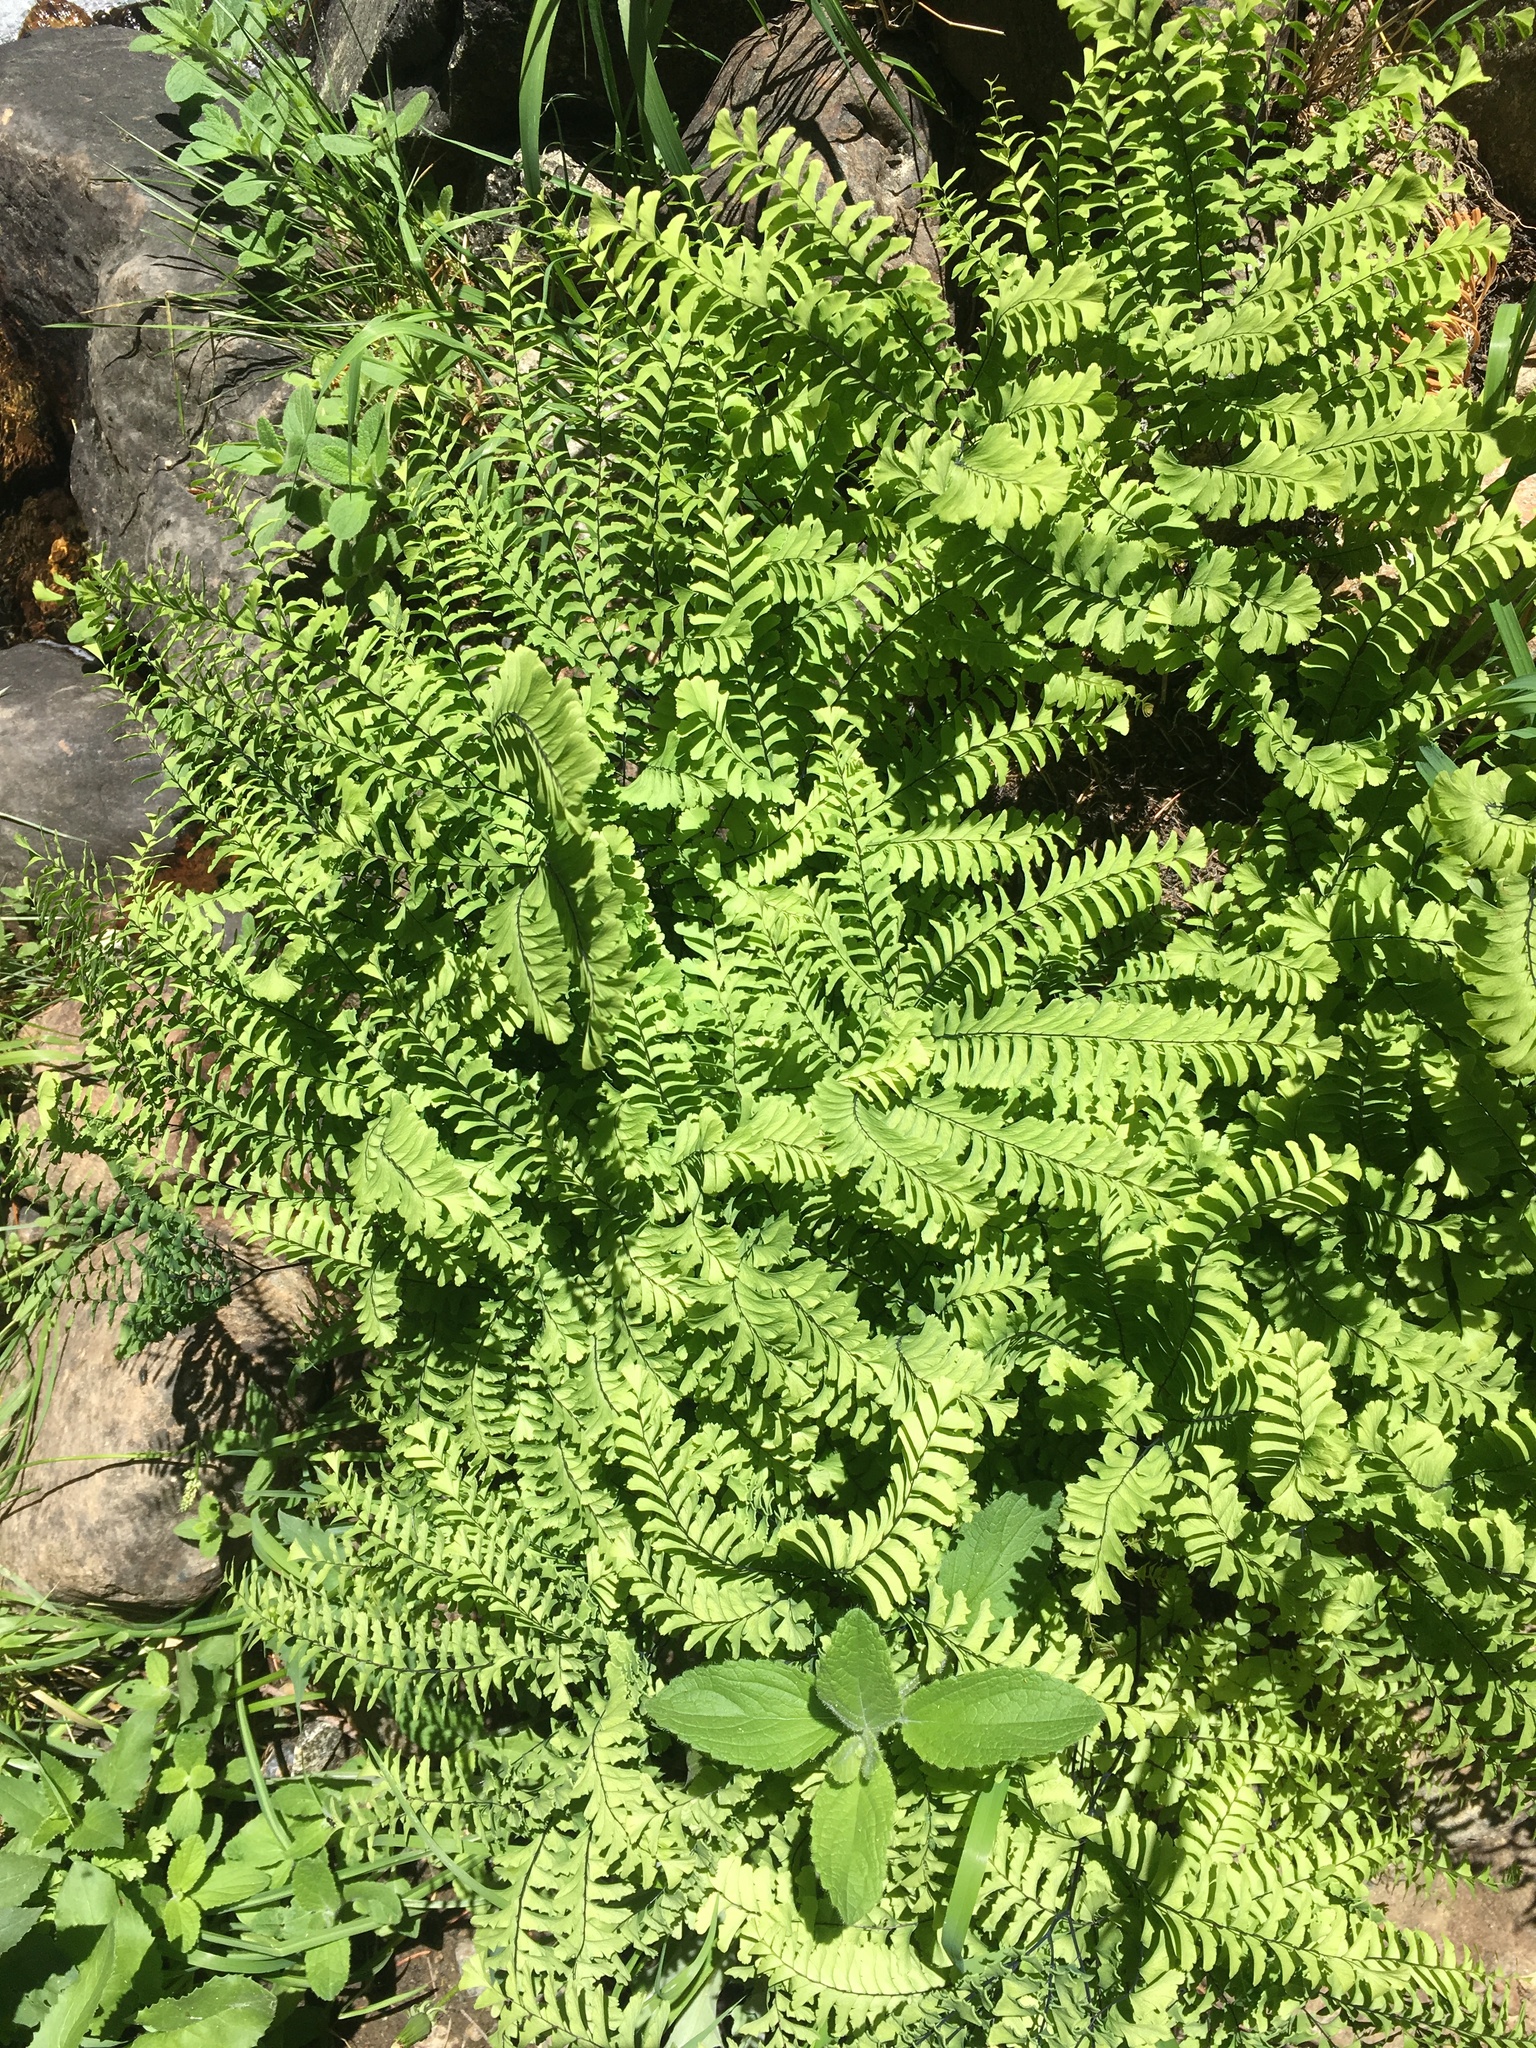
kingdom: Plantae
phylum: Tracheophyta
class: Polypodiopsida
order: Polypodiales
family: Pteridaceae
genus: Adiantum
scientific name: Adiantum aleuticum
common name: Aleutian maidenhair fern
